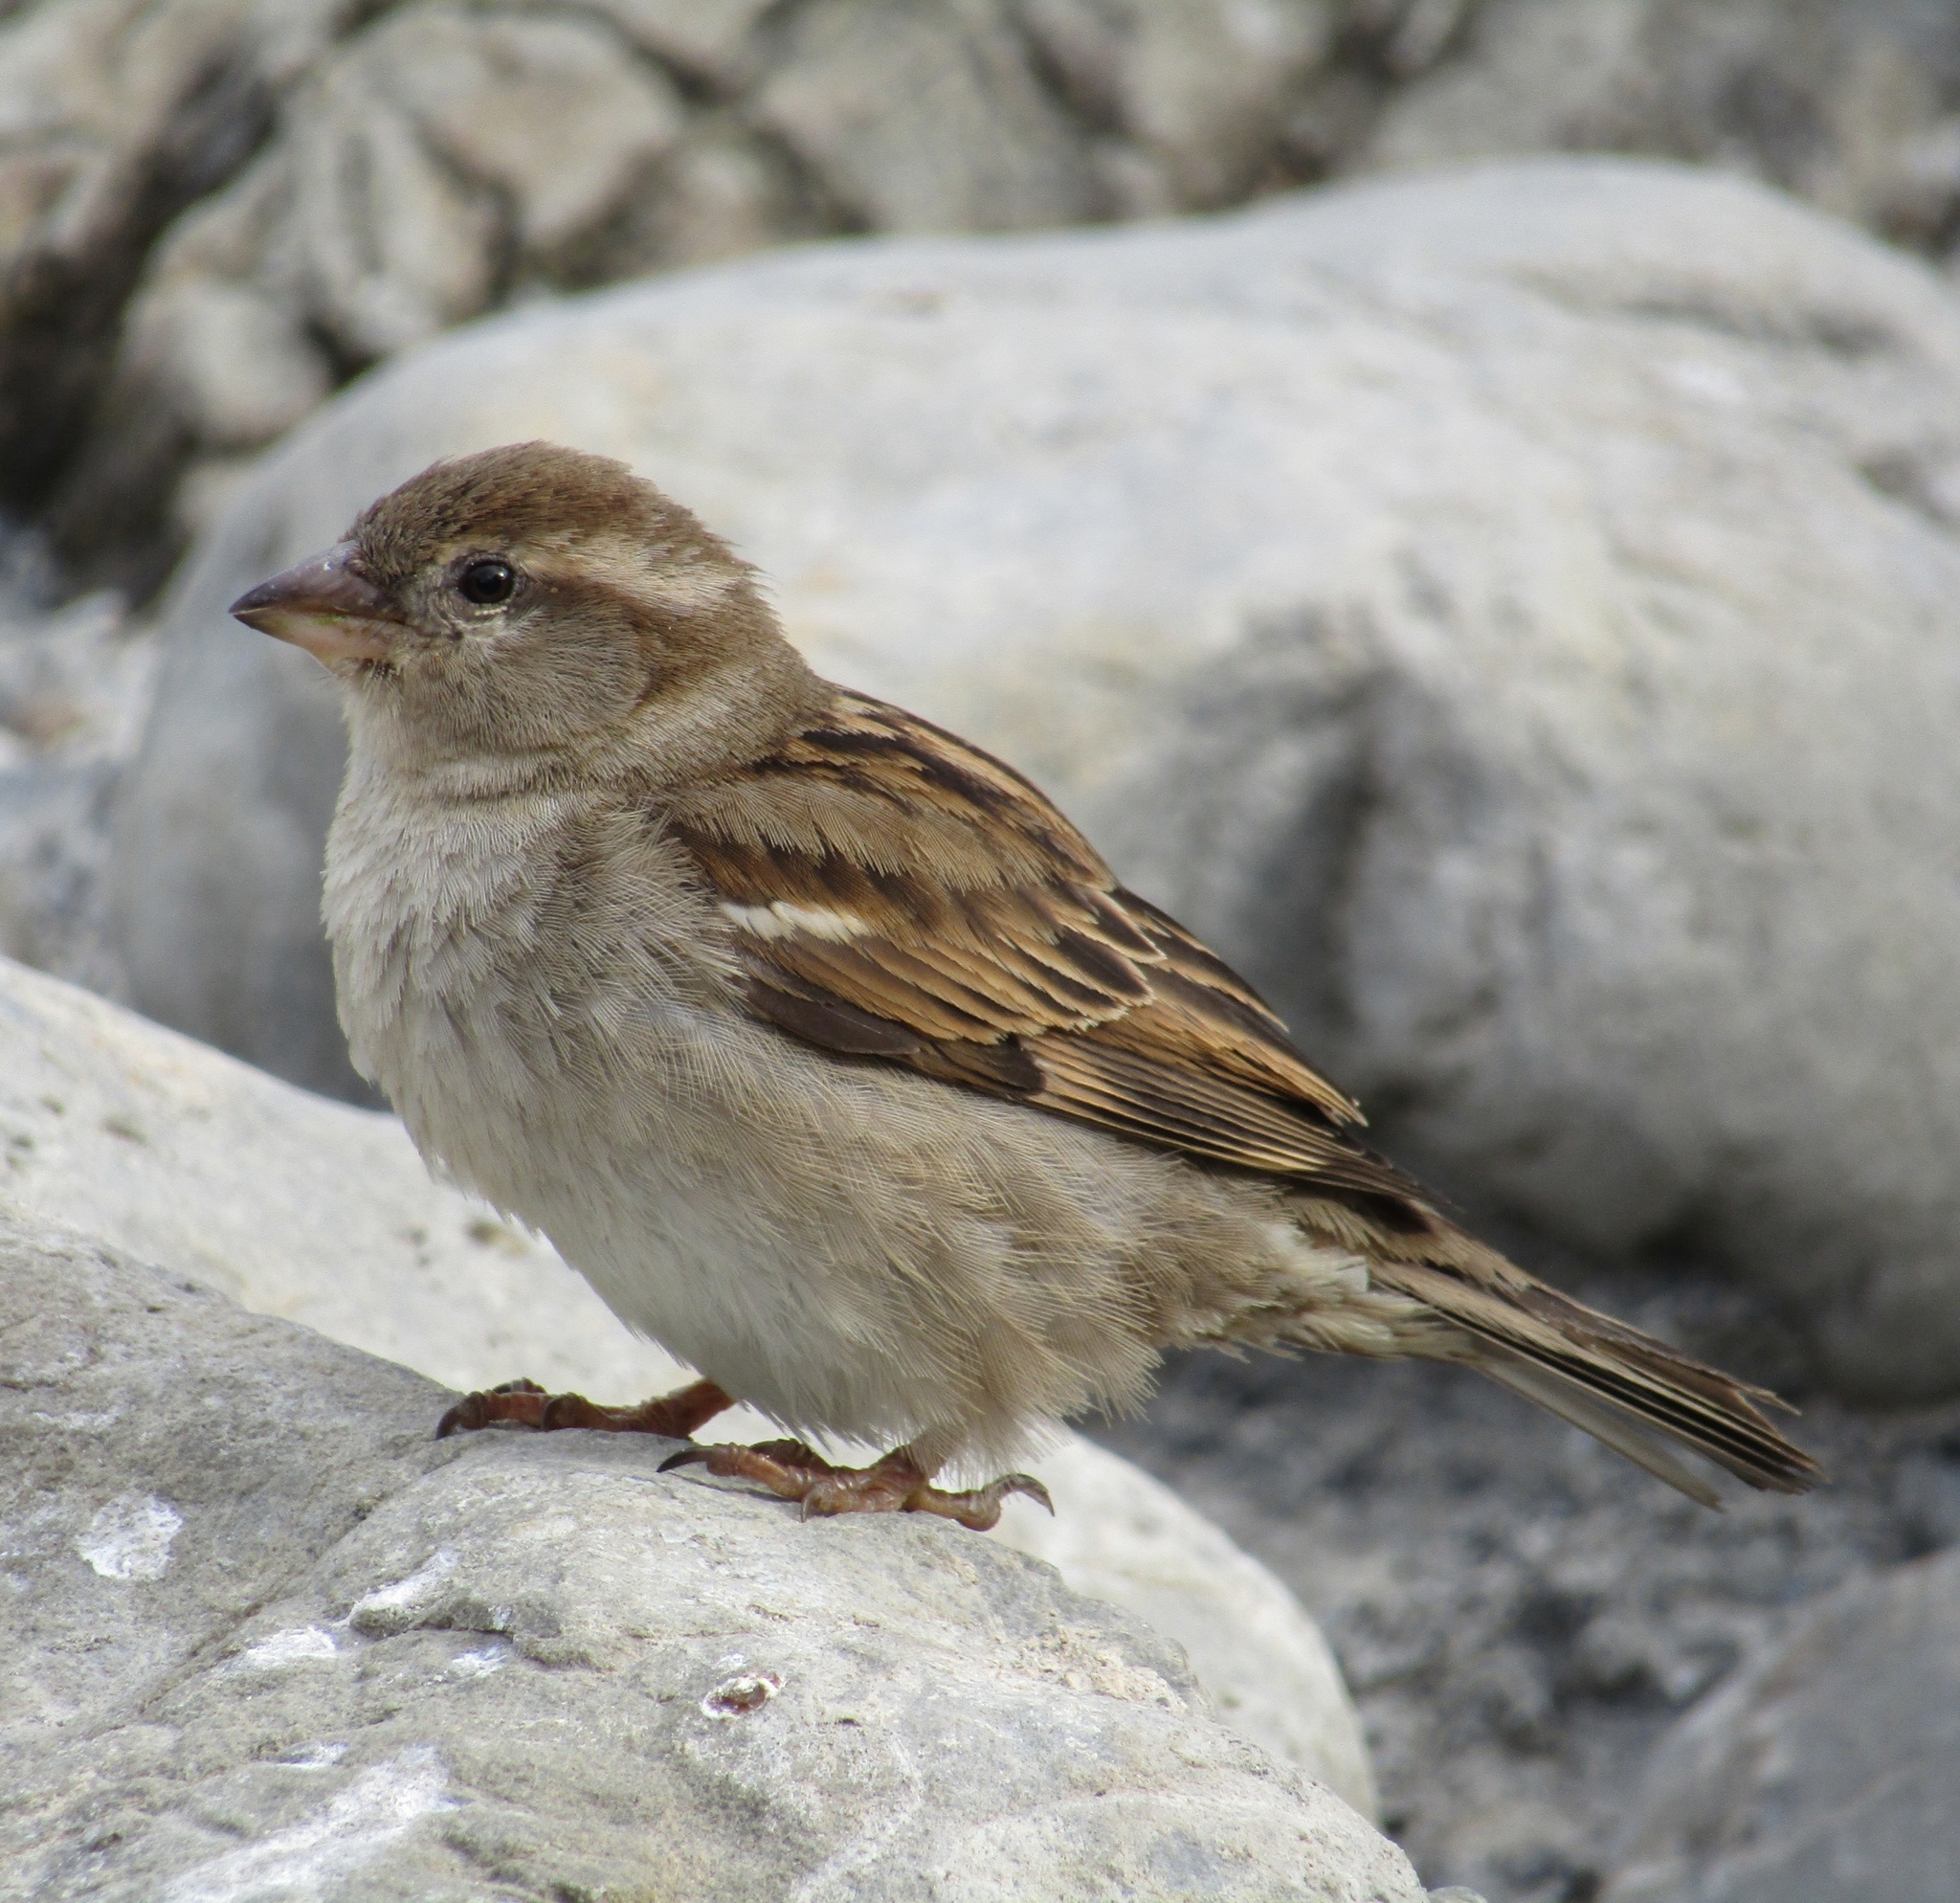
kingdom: Animalia
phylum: Chordata
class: Aves
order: Passeriformes
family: Passeridae
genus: Passer
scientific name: Passer domesticus
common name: House sparrow
